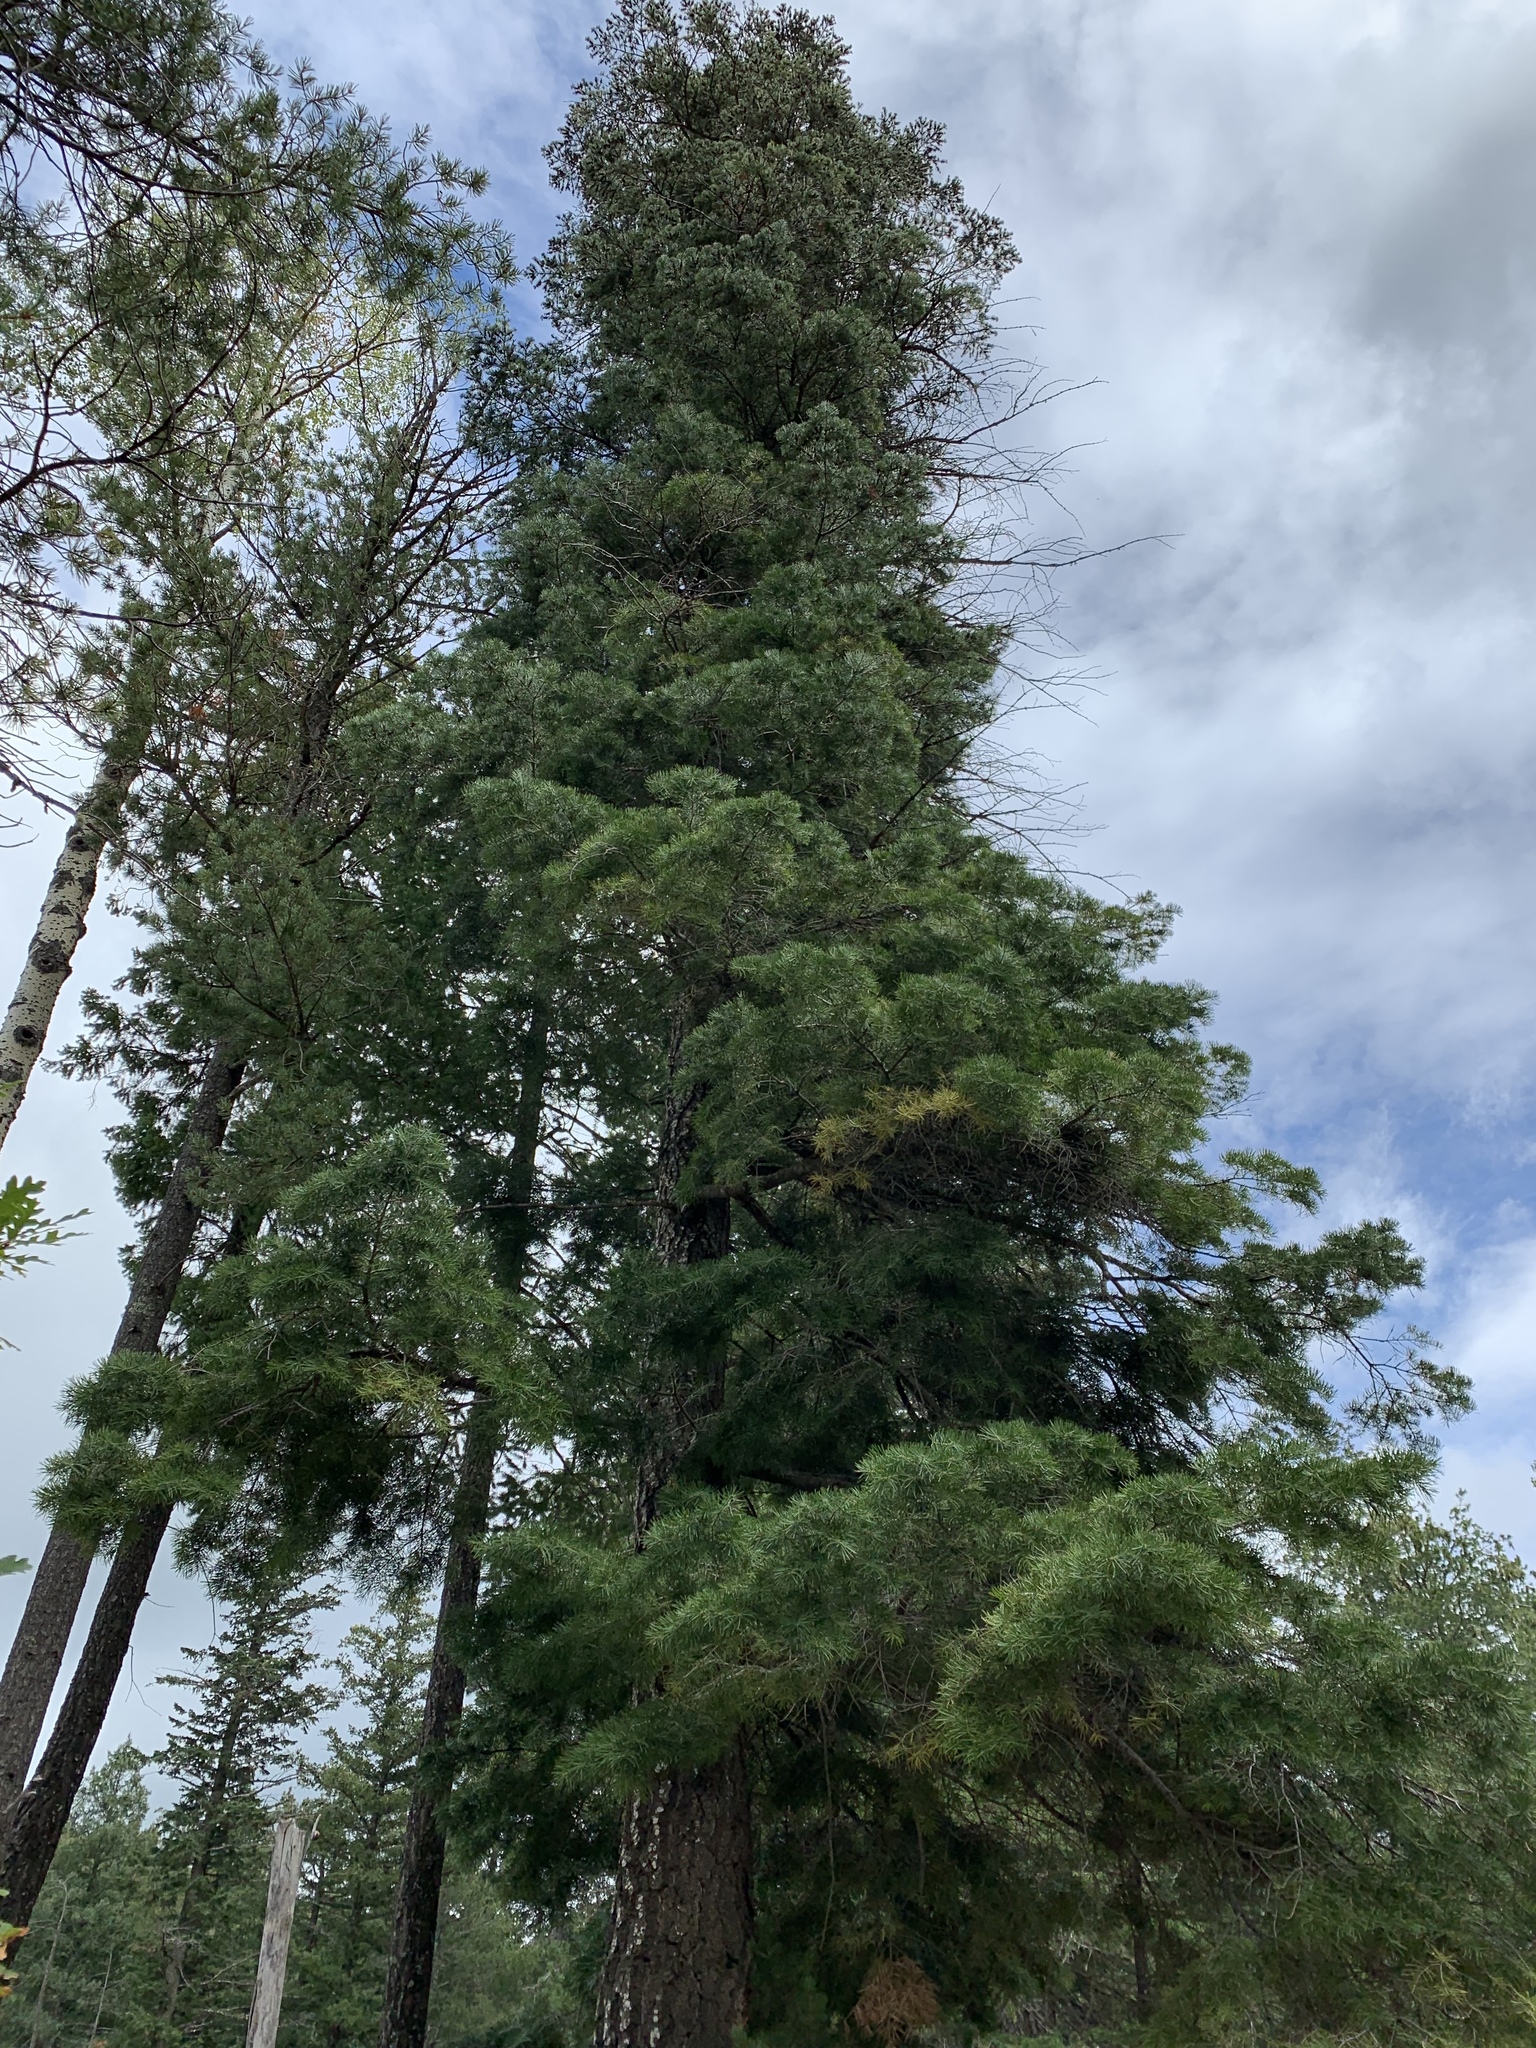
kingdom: Plantae
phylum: Tracheophyta
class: Pinopsida
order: Pinales
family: Pinaceae
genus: Abies
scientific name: Abies concolor
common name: Colorado fir
